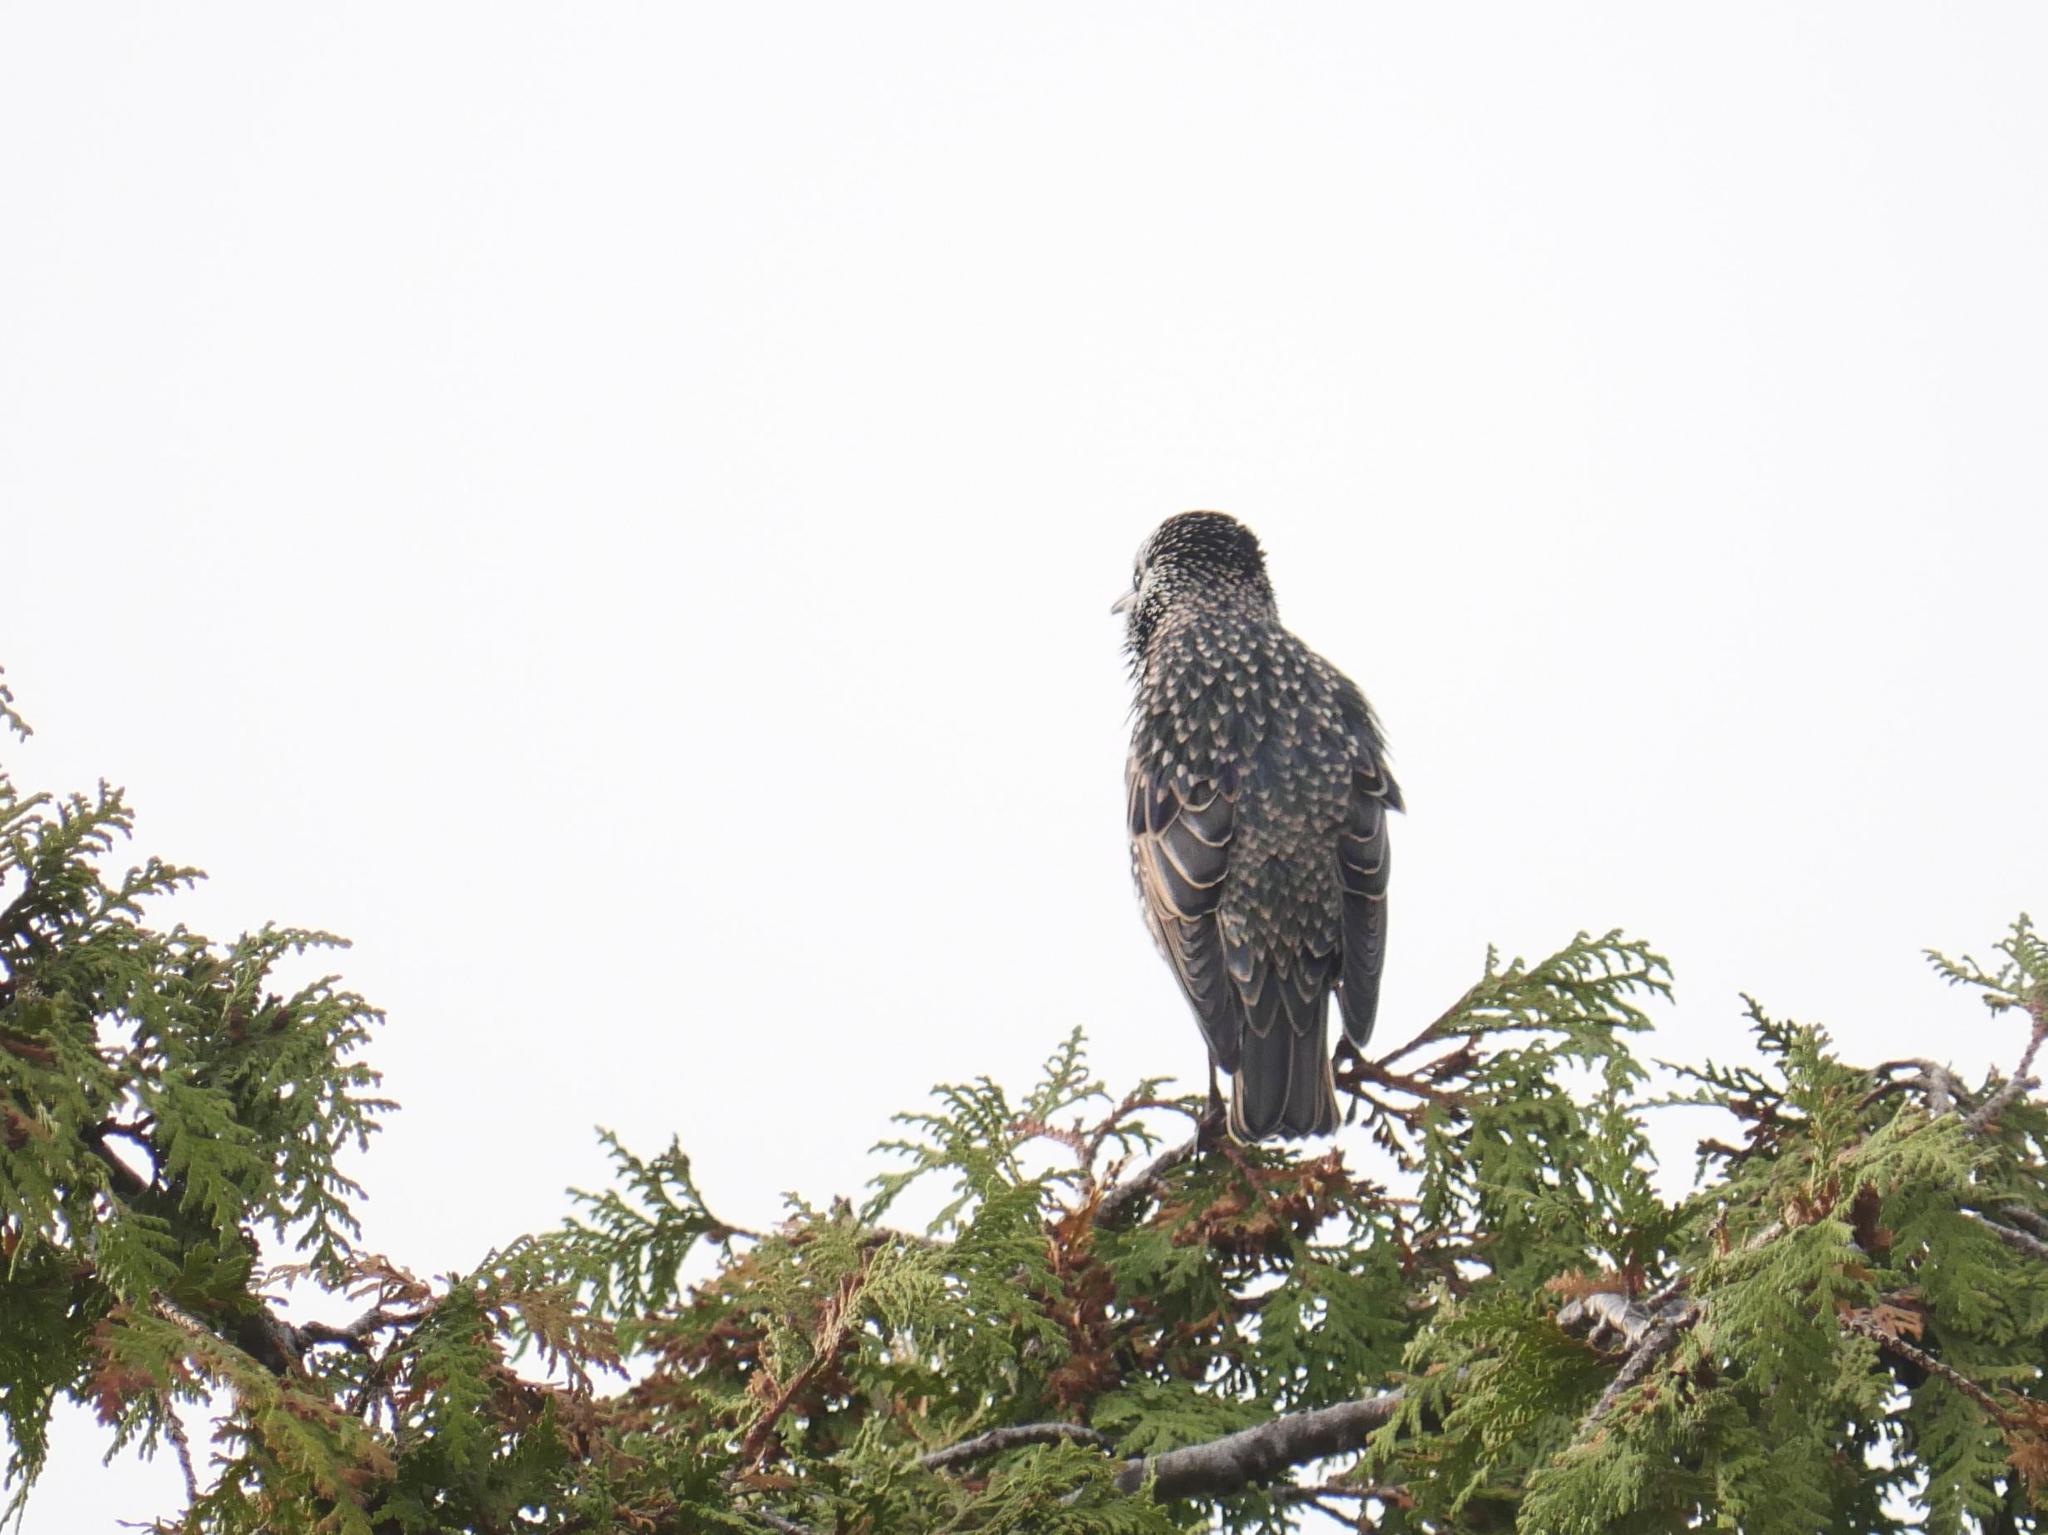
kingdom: Animalia
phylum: Chordata
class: Aves
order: Passeriformes
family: Sturnidae
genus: Sturnus
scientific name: Sturnus vulgaris
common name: Common starling
